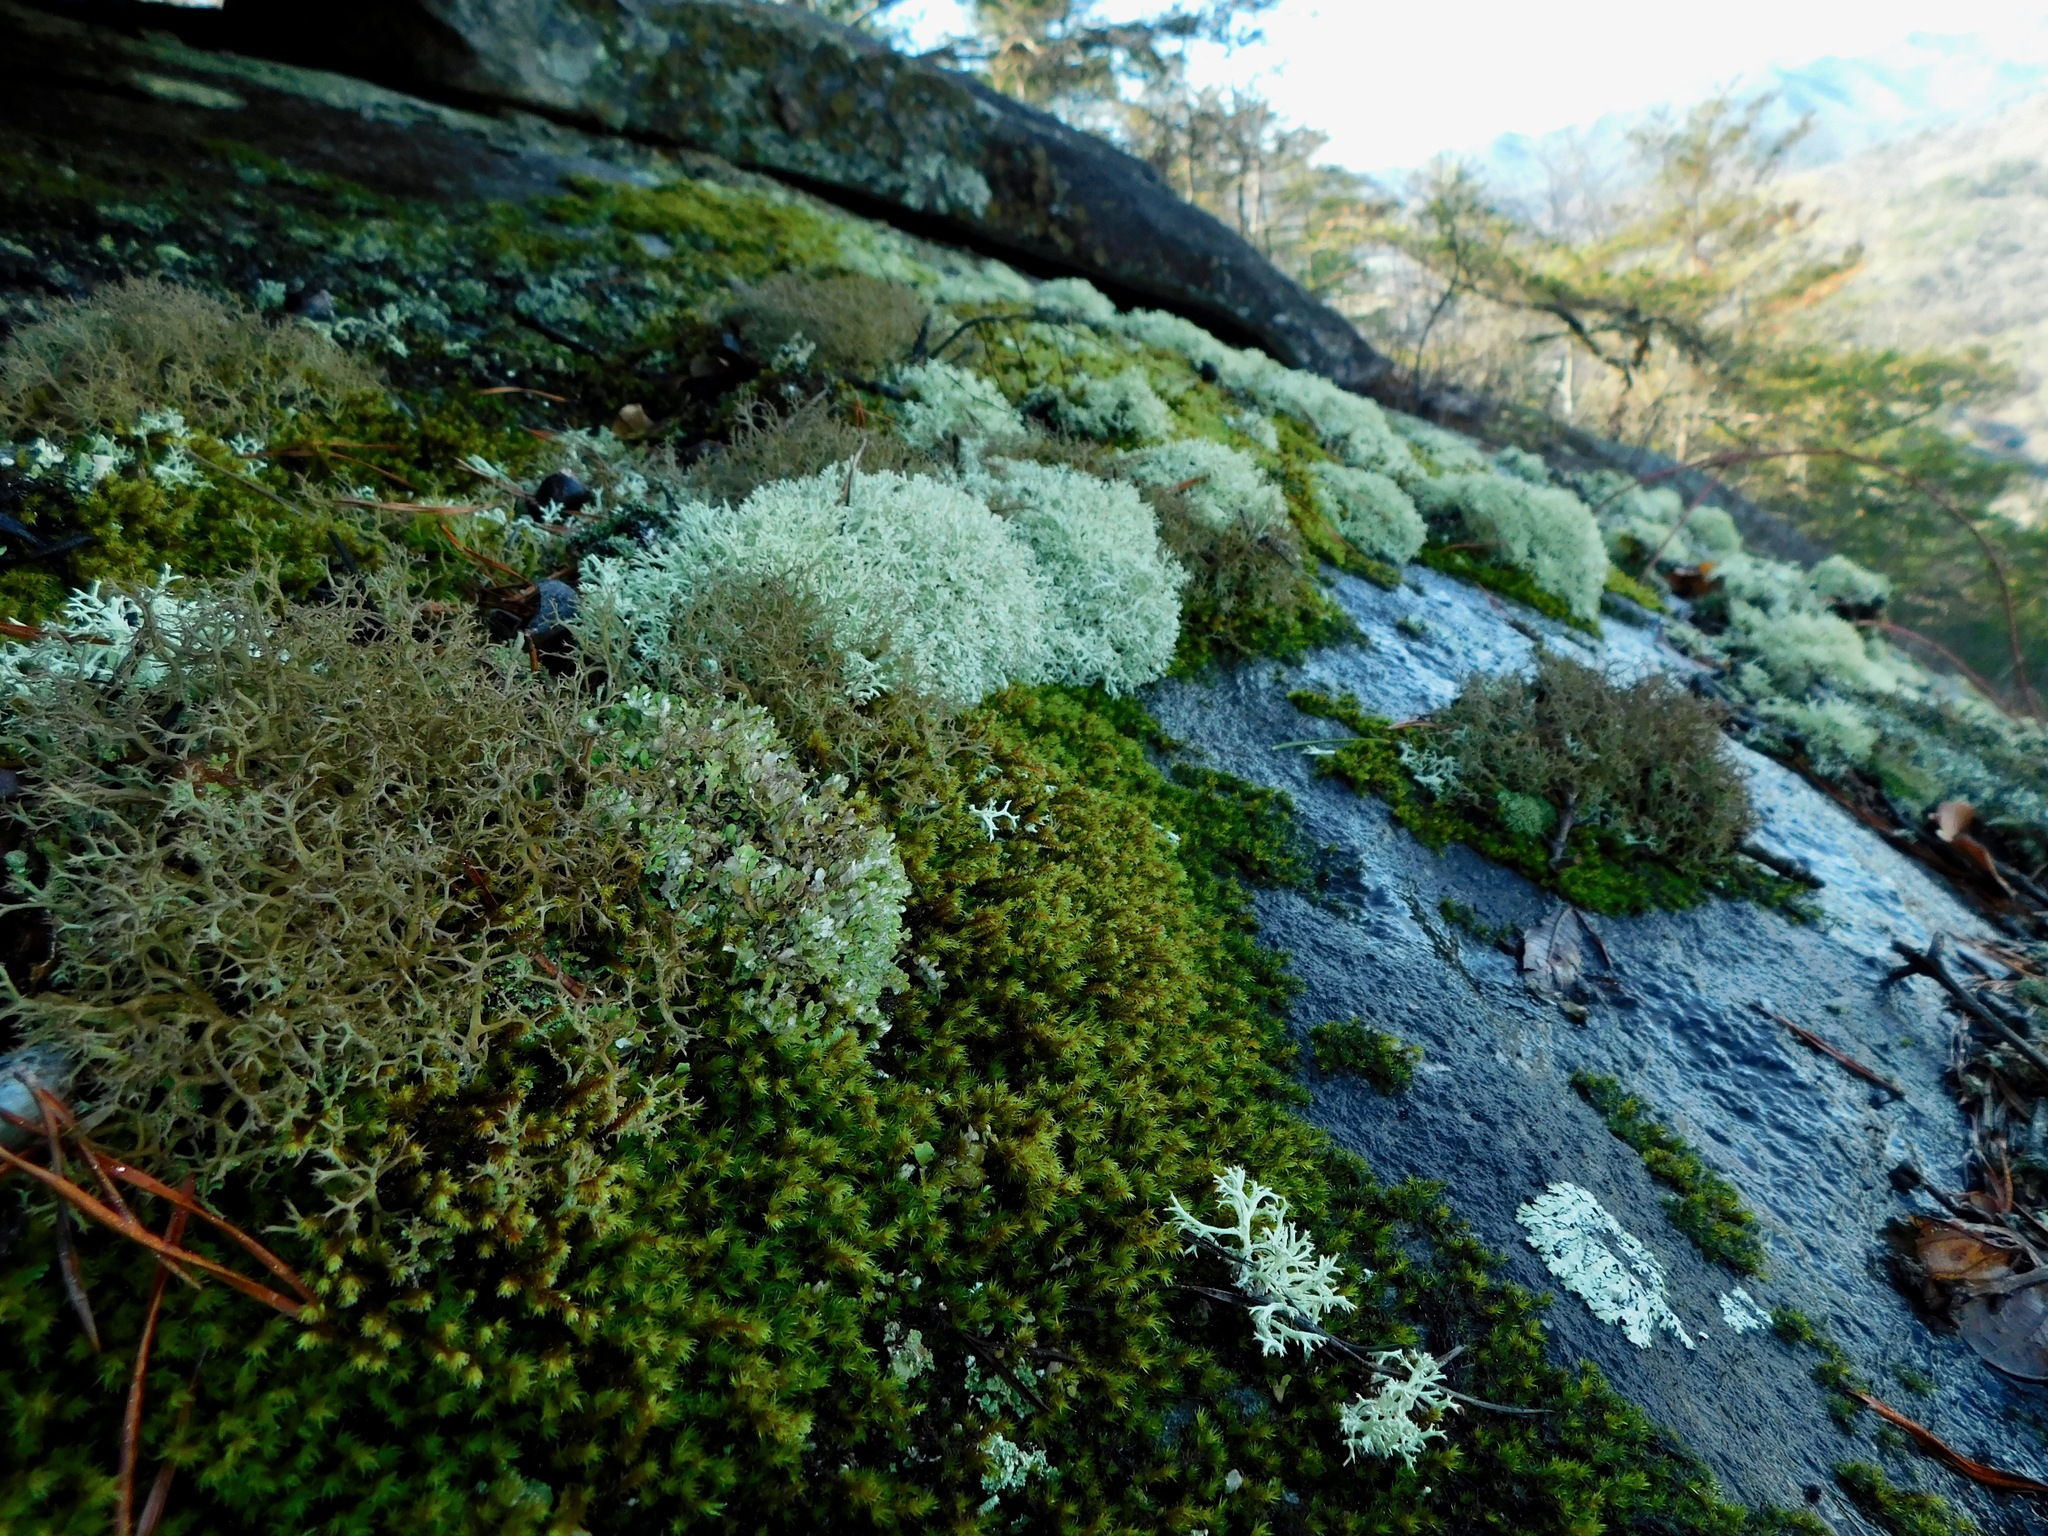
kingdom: Fungi
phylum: Ascomycota
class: Lecanoromycetes
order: Lecanorales
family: Cladoniaceae
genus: Cladonia
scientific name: Cladonia robbinsii
